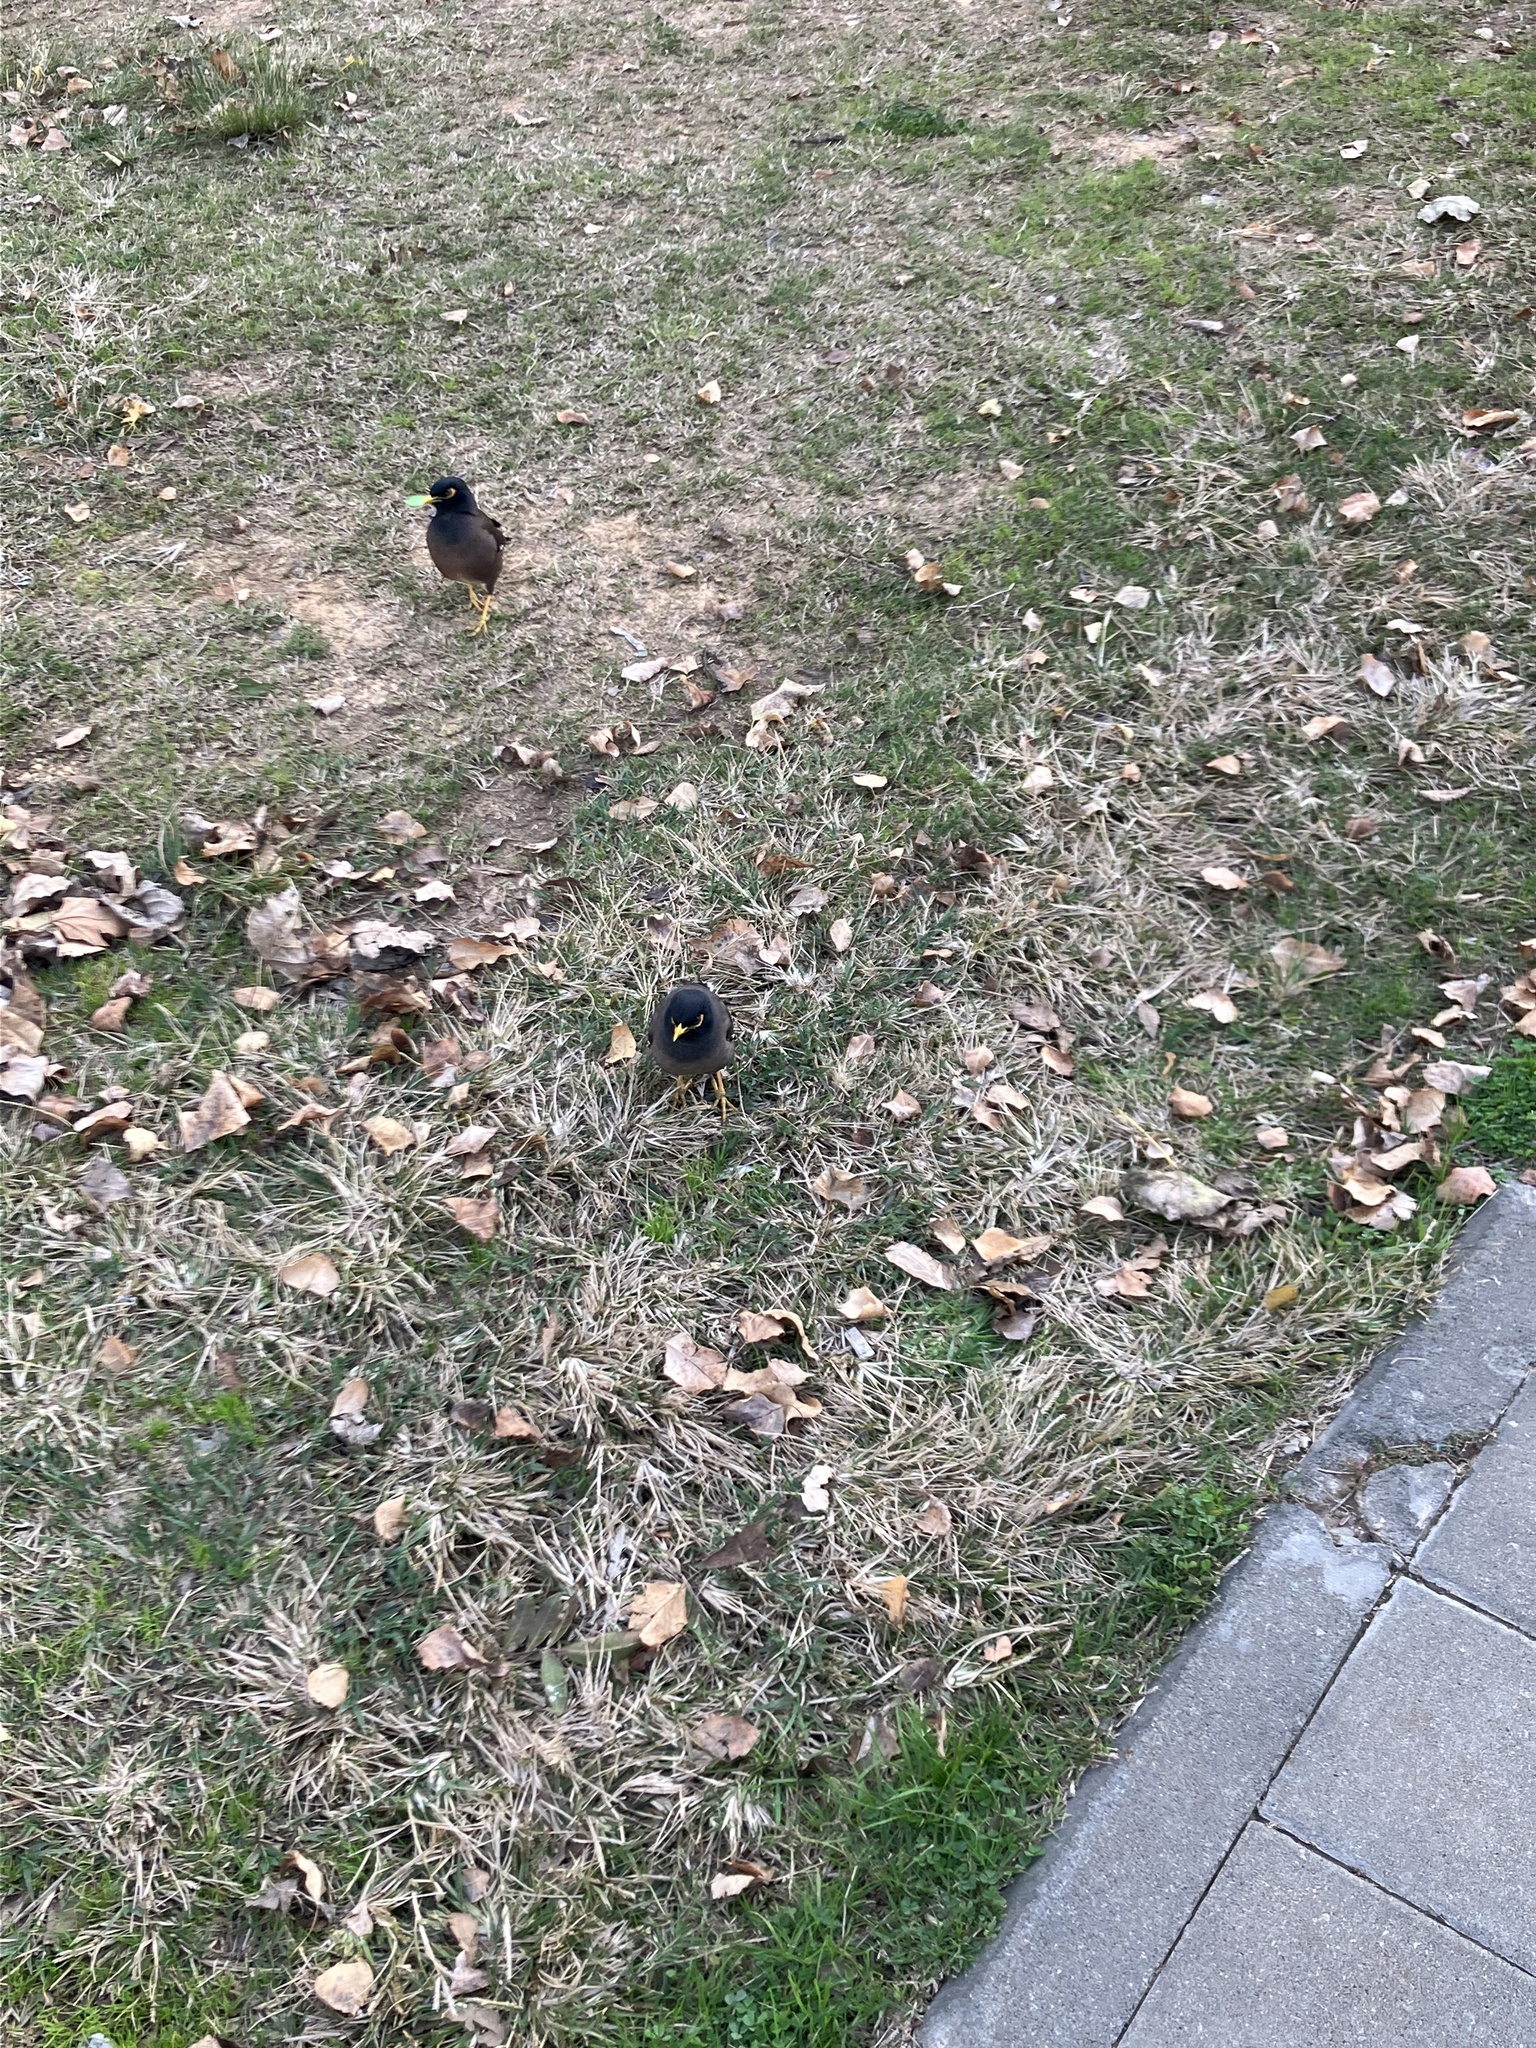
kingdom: Animalia
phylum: Chordata
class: Aves
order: Passeriformes
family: Sturnidae
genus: Acridotheres
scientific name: Acridotheres tristis
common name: Common myna
